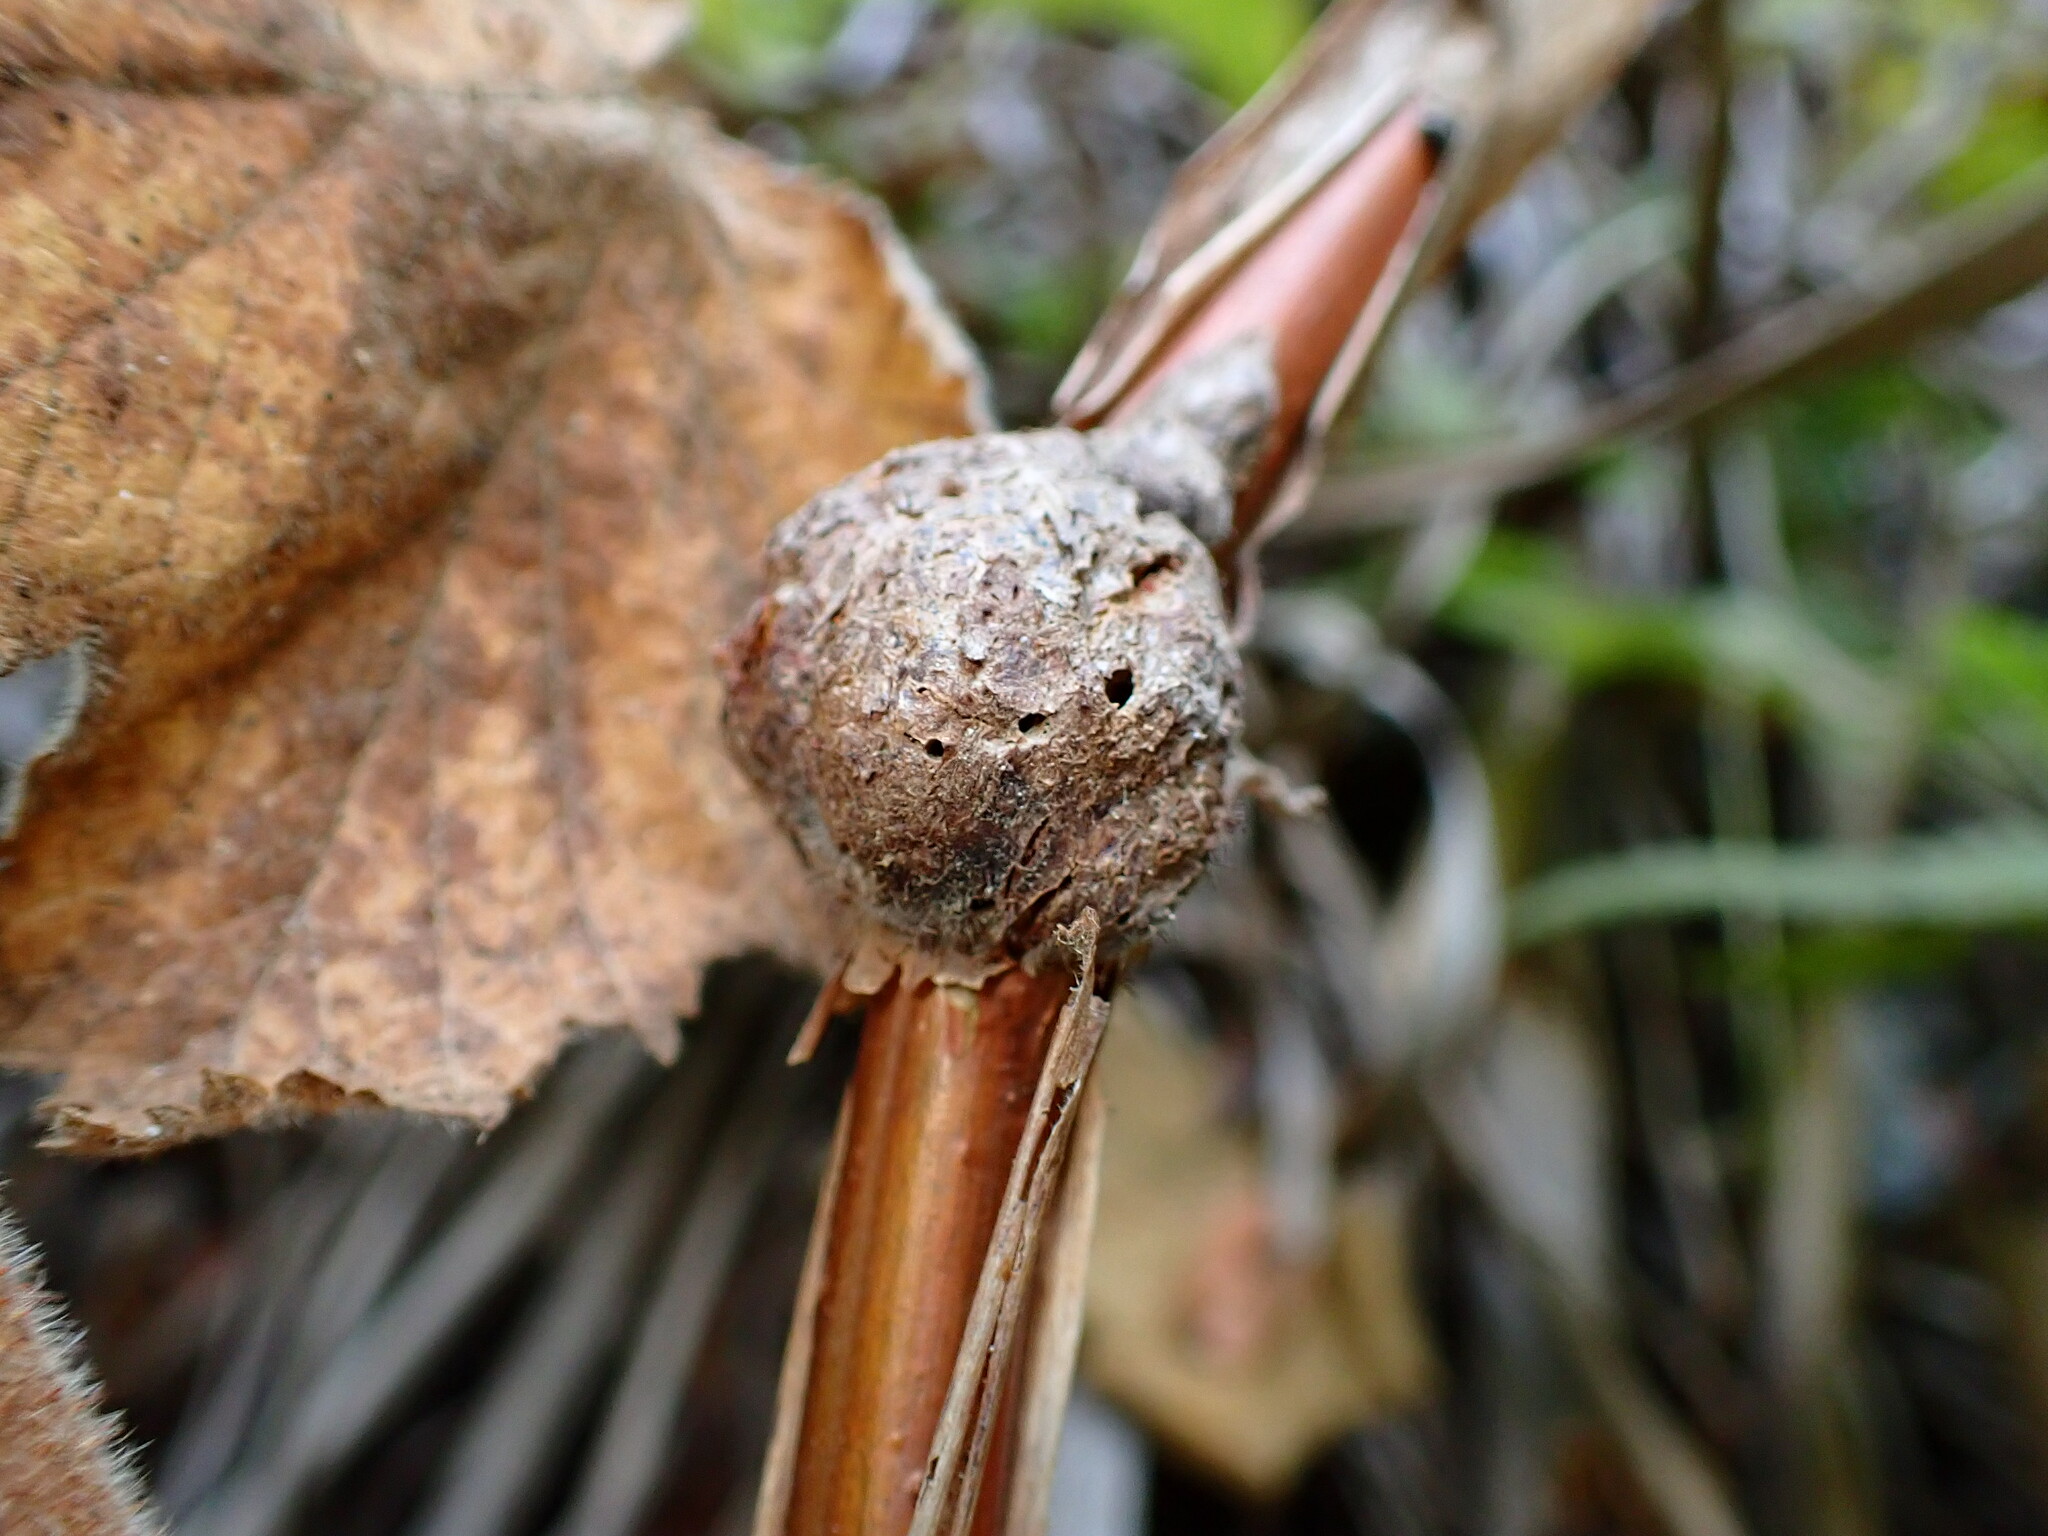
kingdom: Animalia
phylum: Arthropoda
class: Insecta
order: Hymenoptera
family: Cynipidae
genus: Diastrophus
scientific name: Diastrophus
